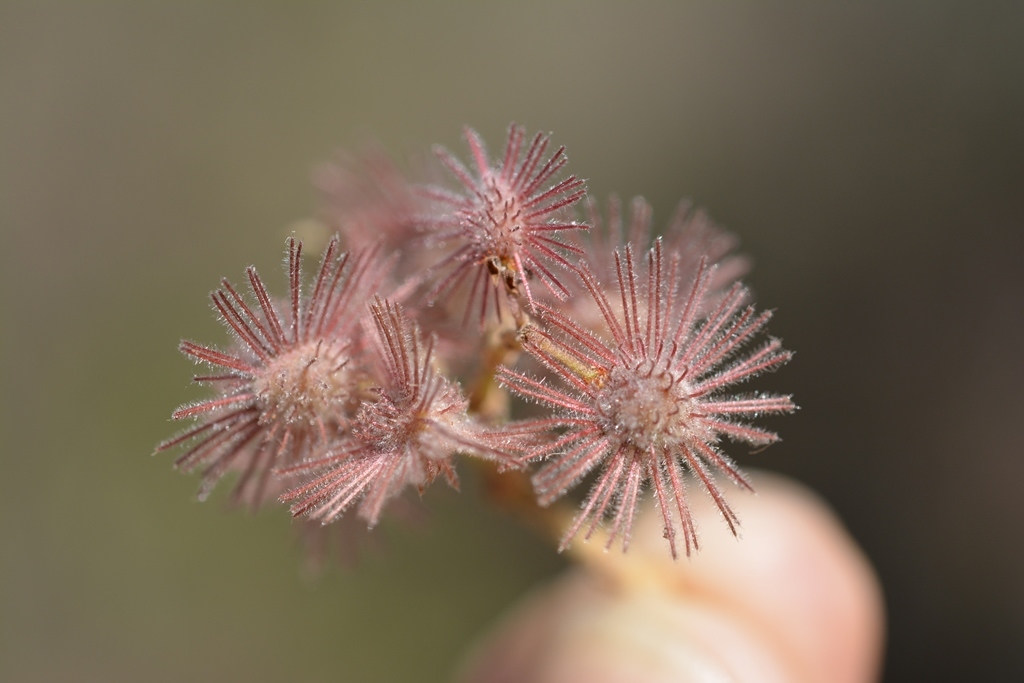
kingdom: Plantae
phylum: Tracheophyta
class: Magnoliopsida
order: Malvales
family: Malvaceae
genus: Heliocarpus
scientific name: Heliocarpus terebinthinaceus
